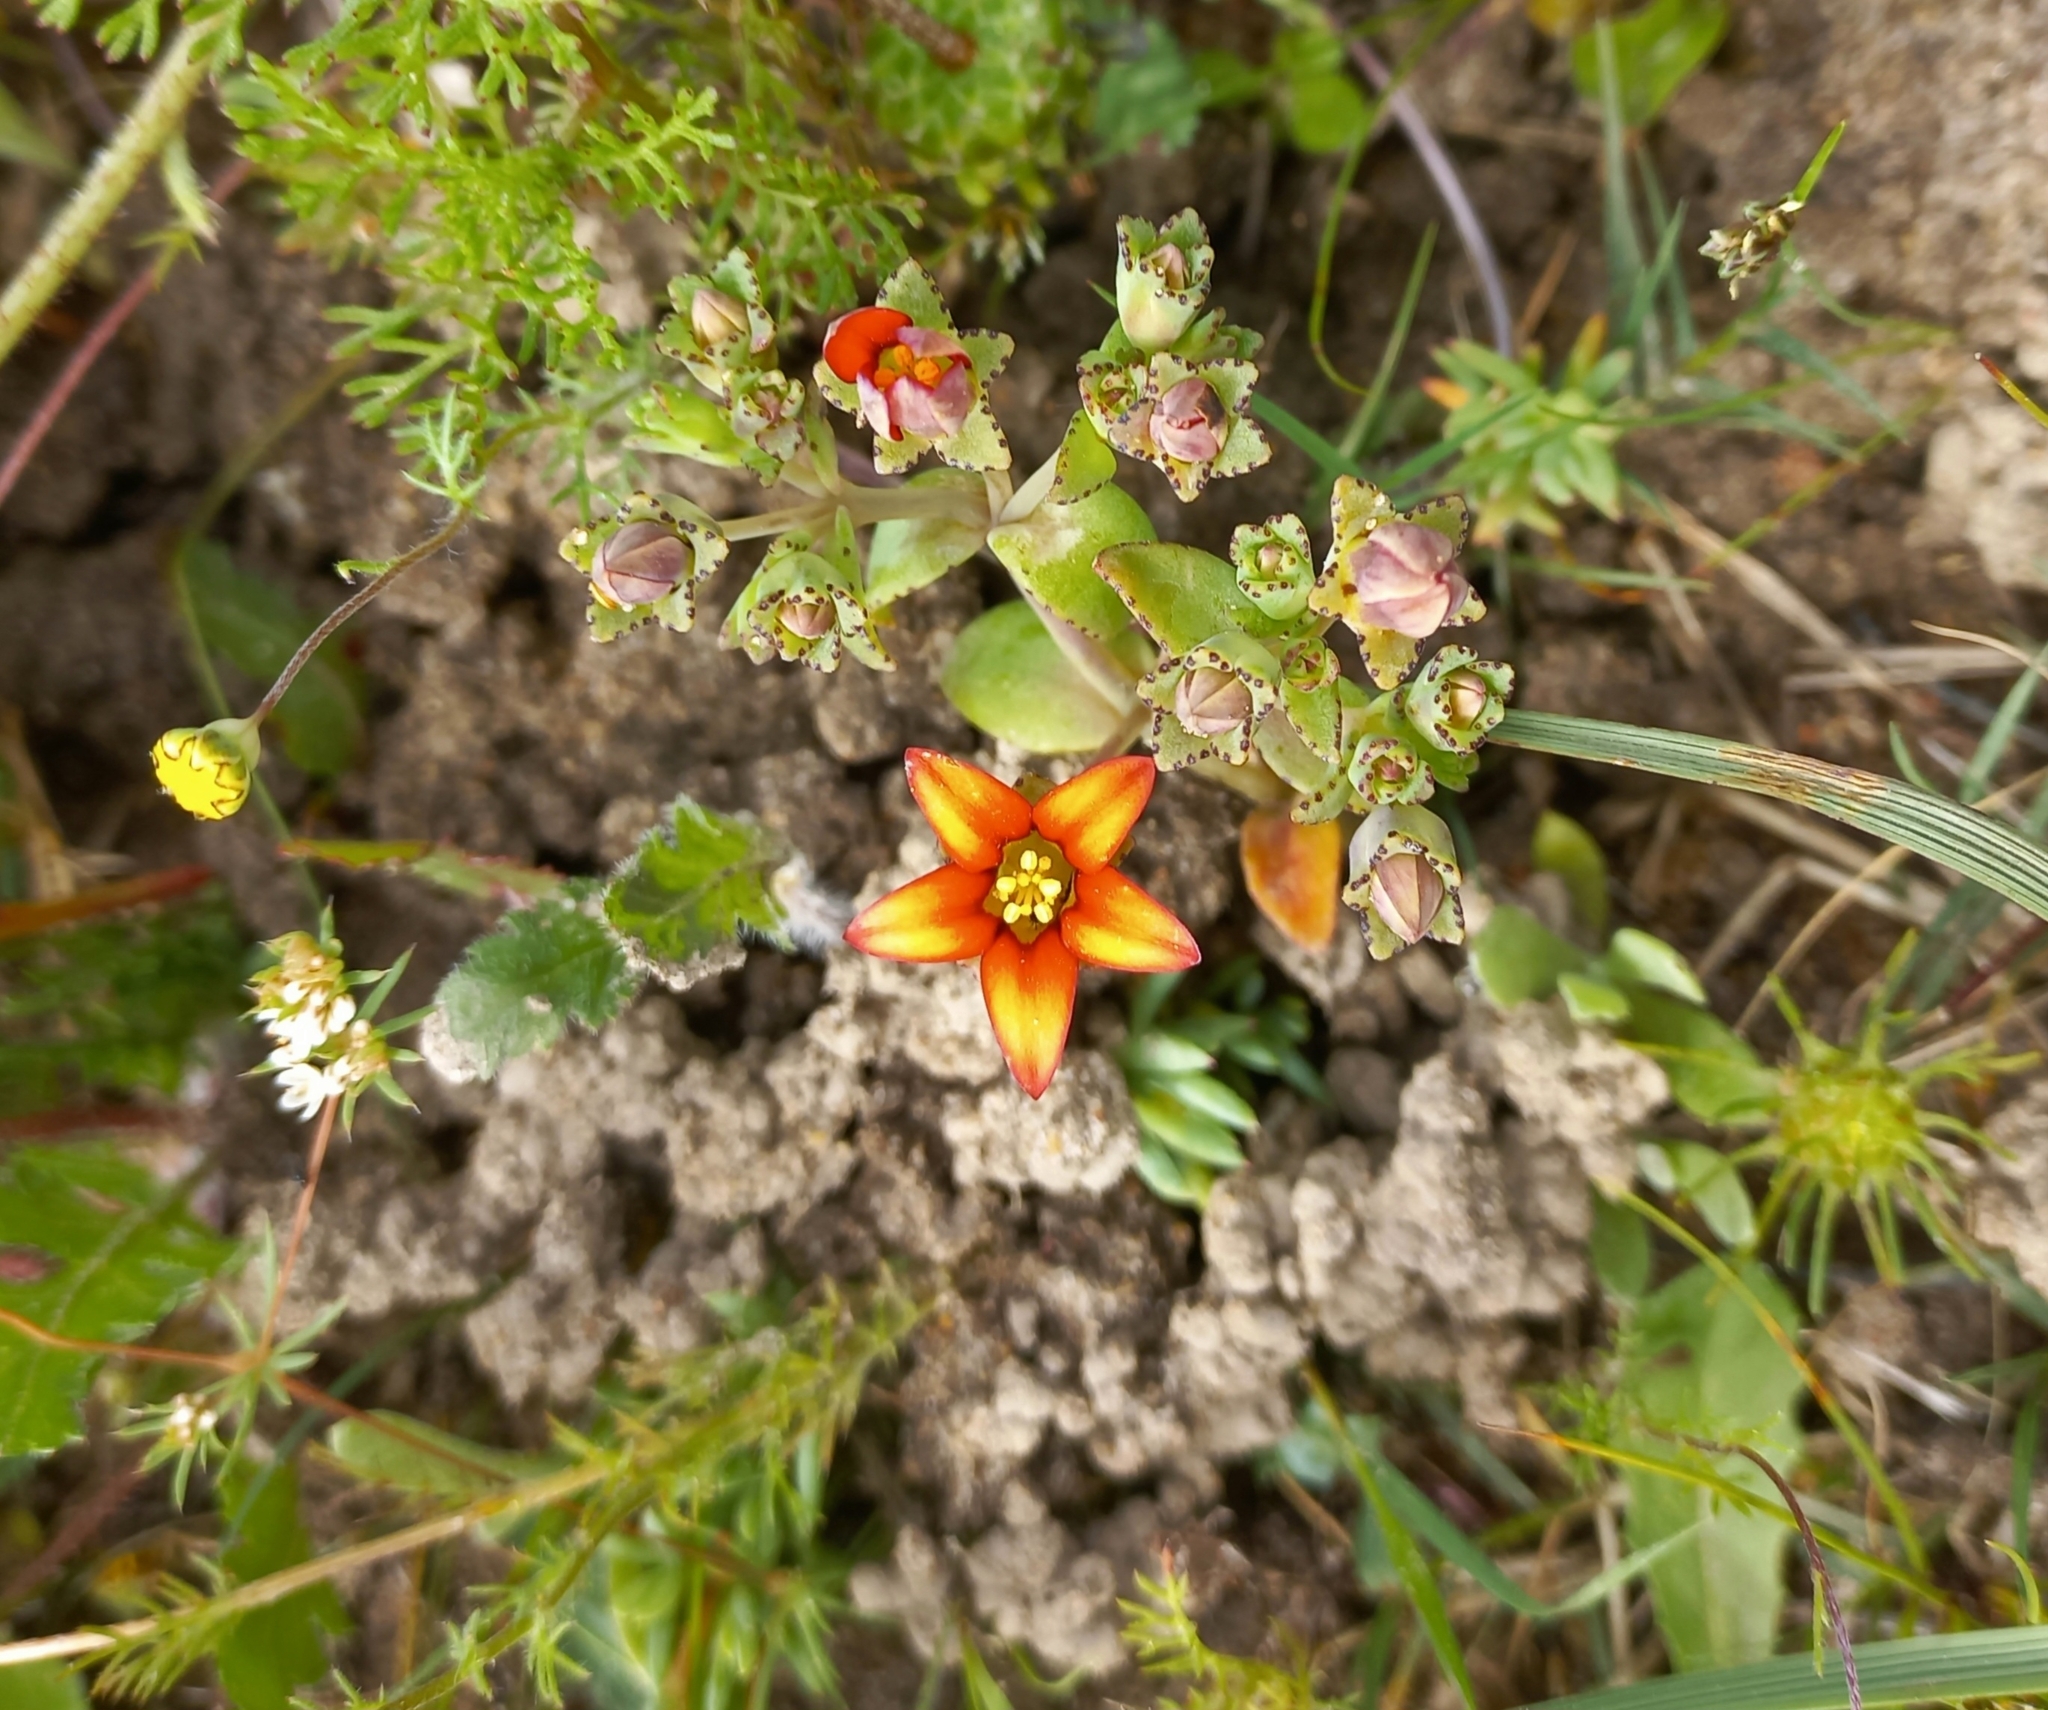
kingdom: Plantae
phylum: Tracheophyta
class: Magnoliopsida
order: Saxifragales
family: Crassulaceae
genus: Crassula
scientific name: Crassula dichotoma
